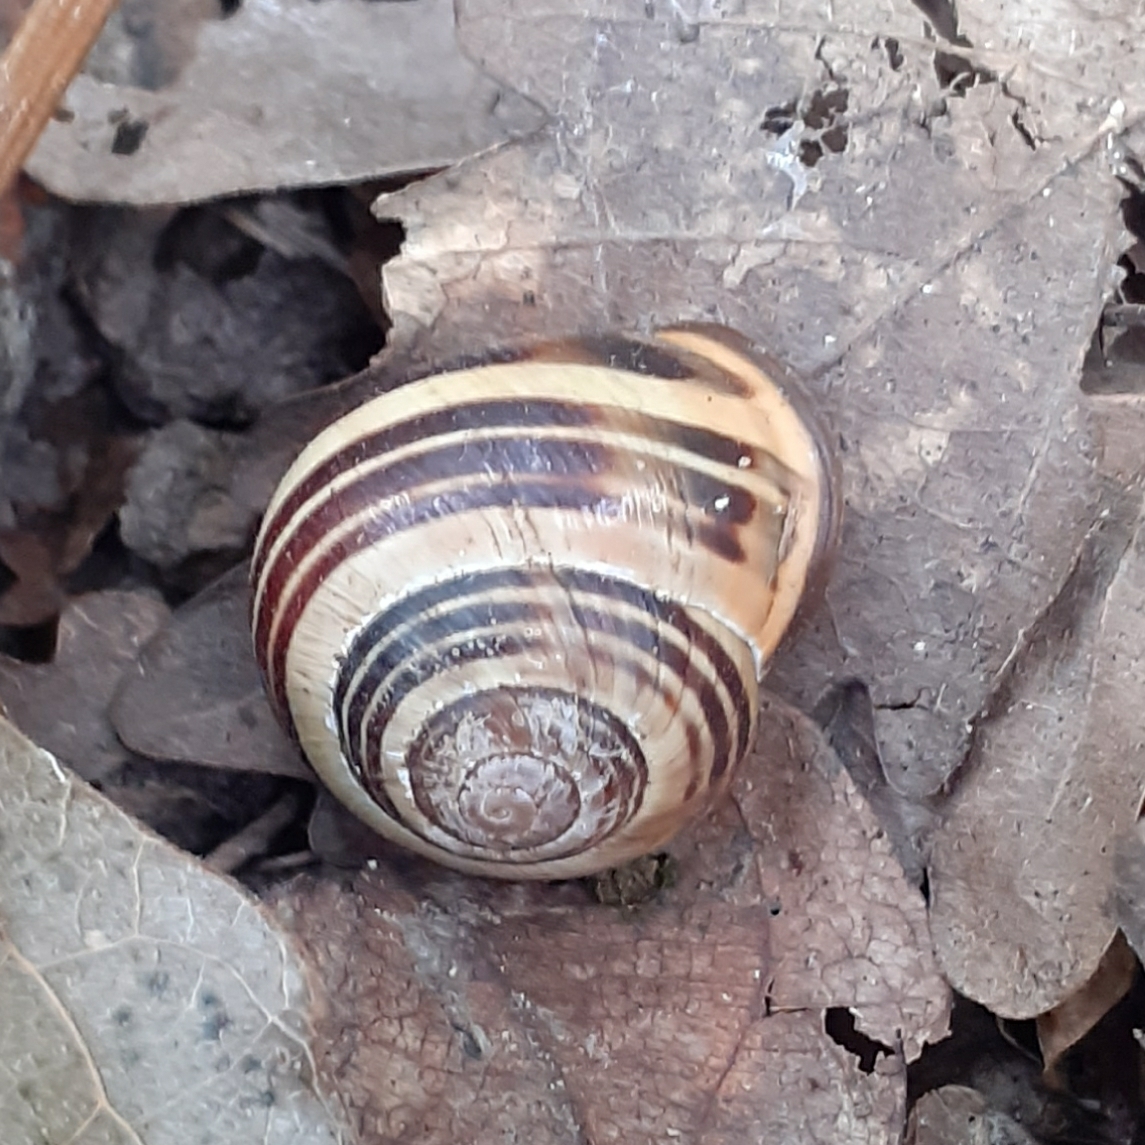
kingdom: Animalia
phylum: Mollusca
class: Gastropoda
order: Stylommatophora
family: Helicidae
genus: Cepaea
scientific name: Cepaea nemoralis
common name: Grovesnail
